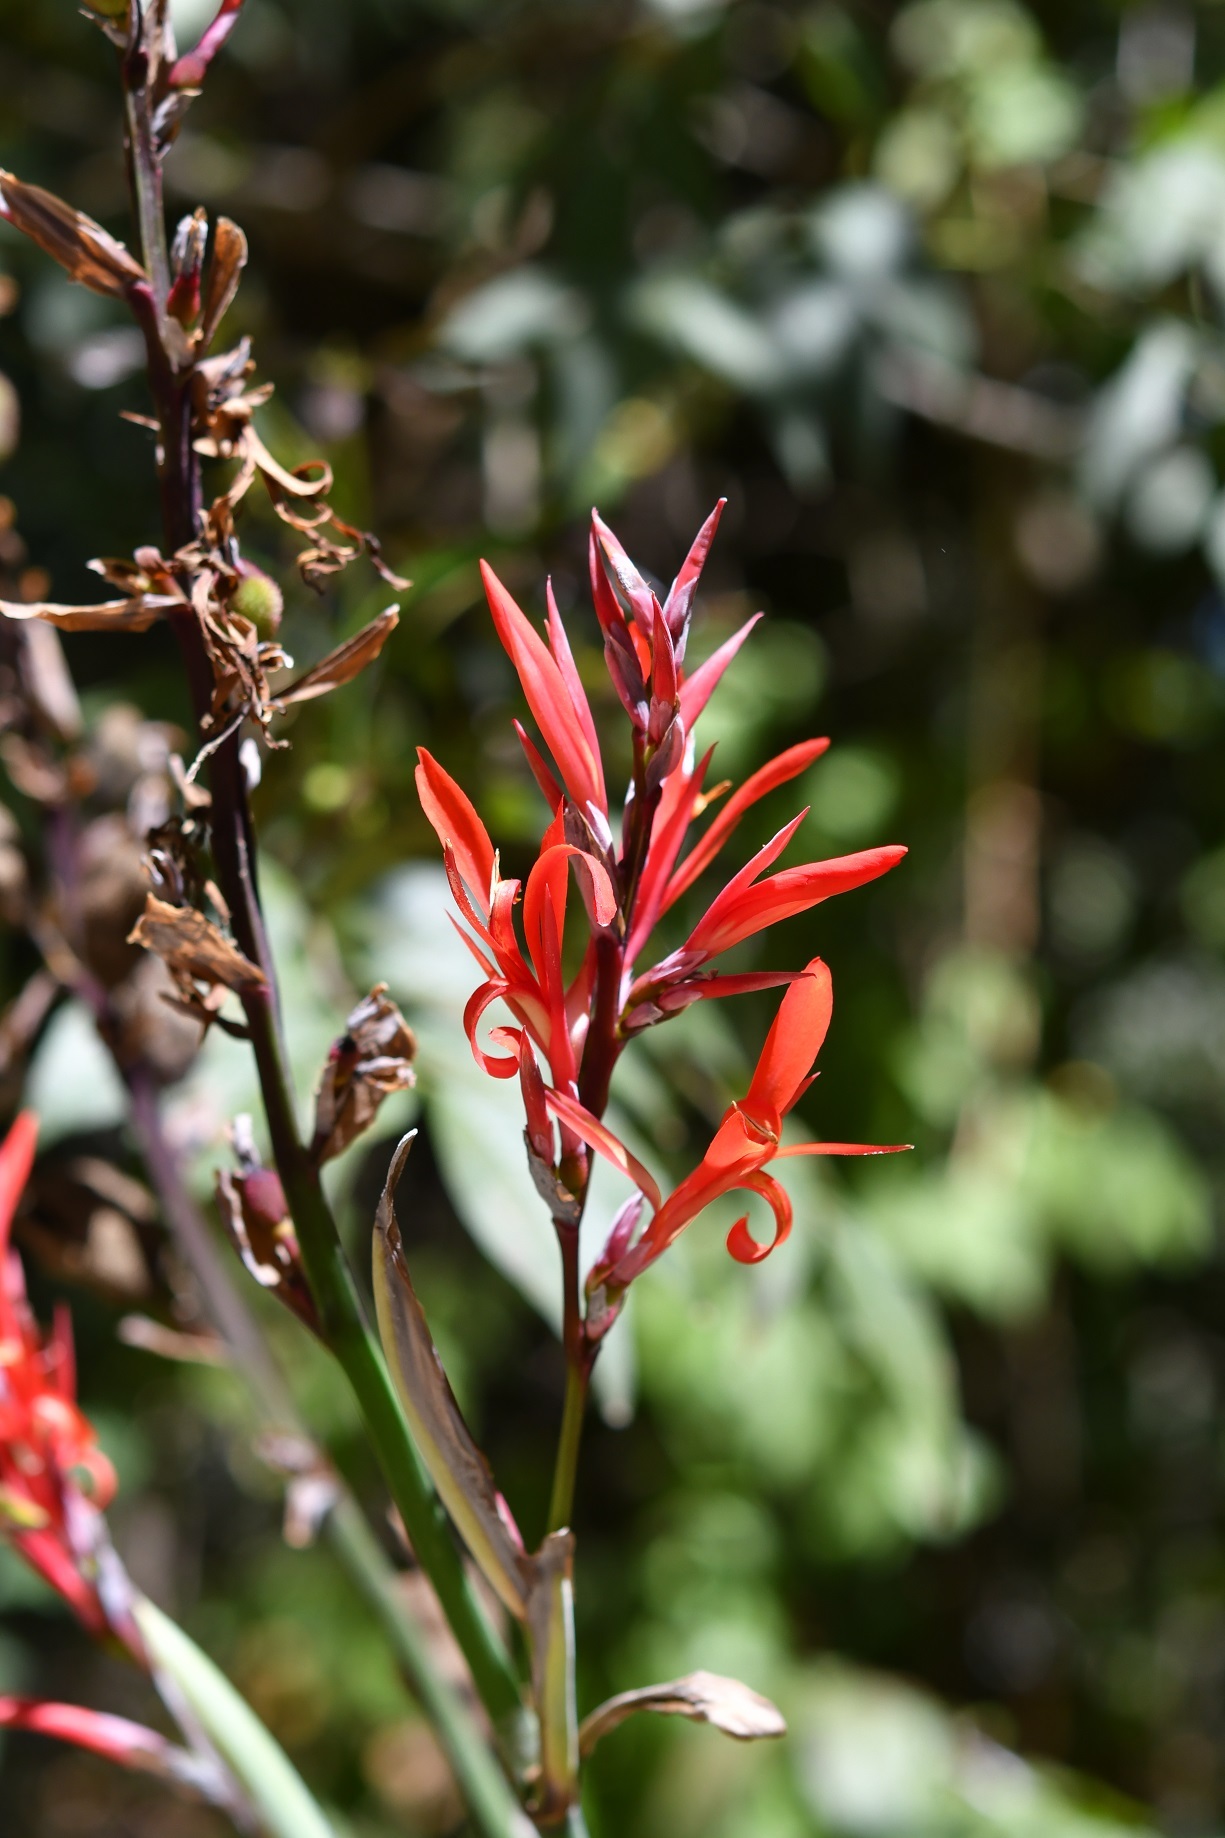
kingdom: Plantae
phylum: Tracheophyta
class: Liliopsida
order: Zingiberales
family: Cannaceae
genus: Canna
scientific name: Canna indica
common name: Indian shot
